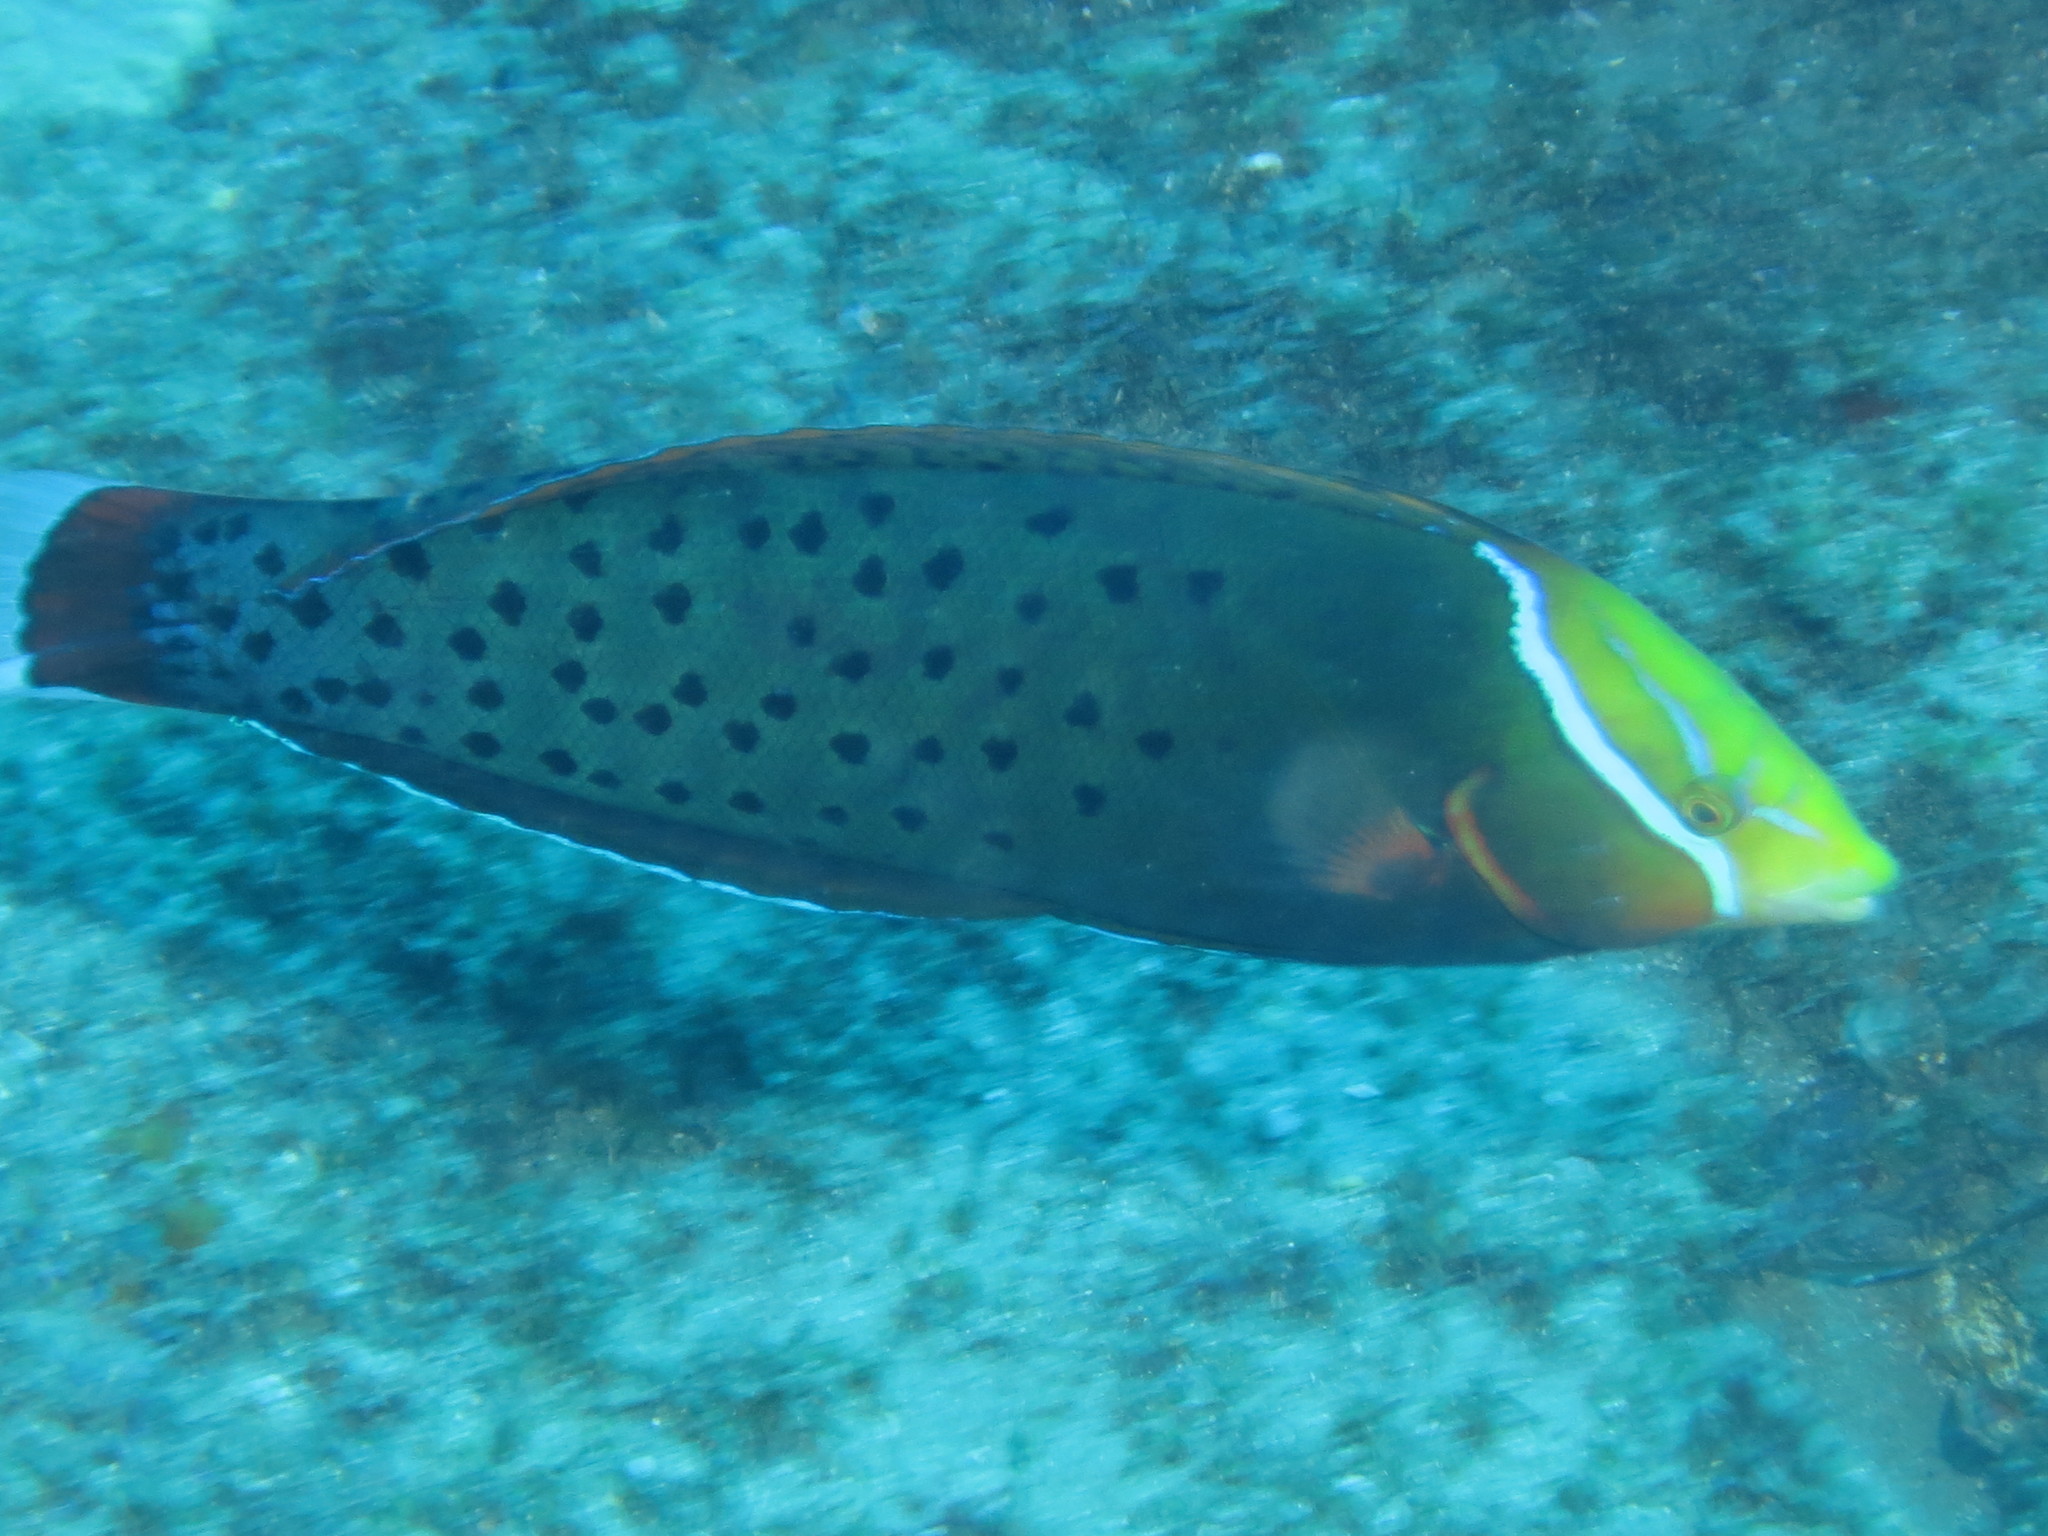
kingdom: Animalia
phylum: Chordata
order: Perciformes
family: Labridae
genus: Coris
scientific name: Coris formosa
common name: Queen coris
